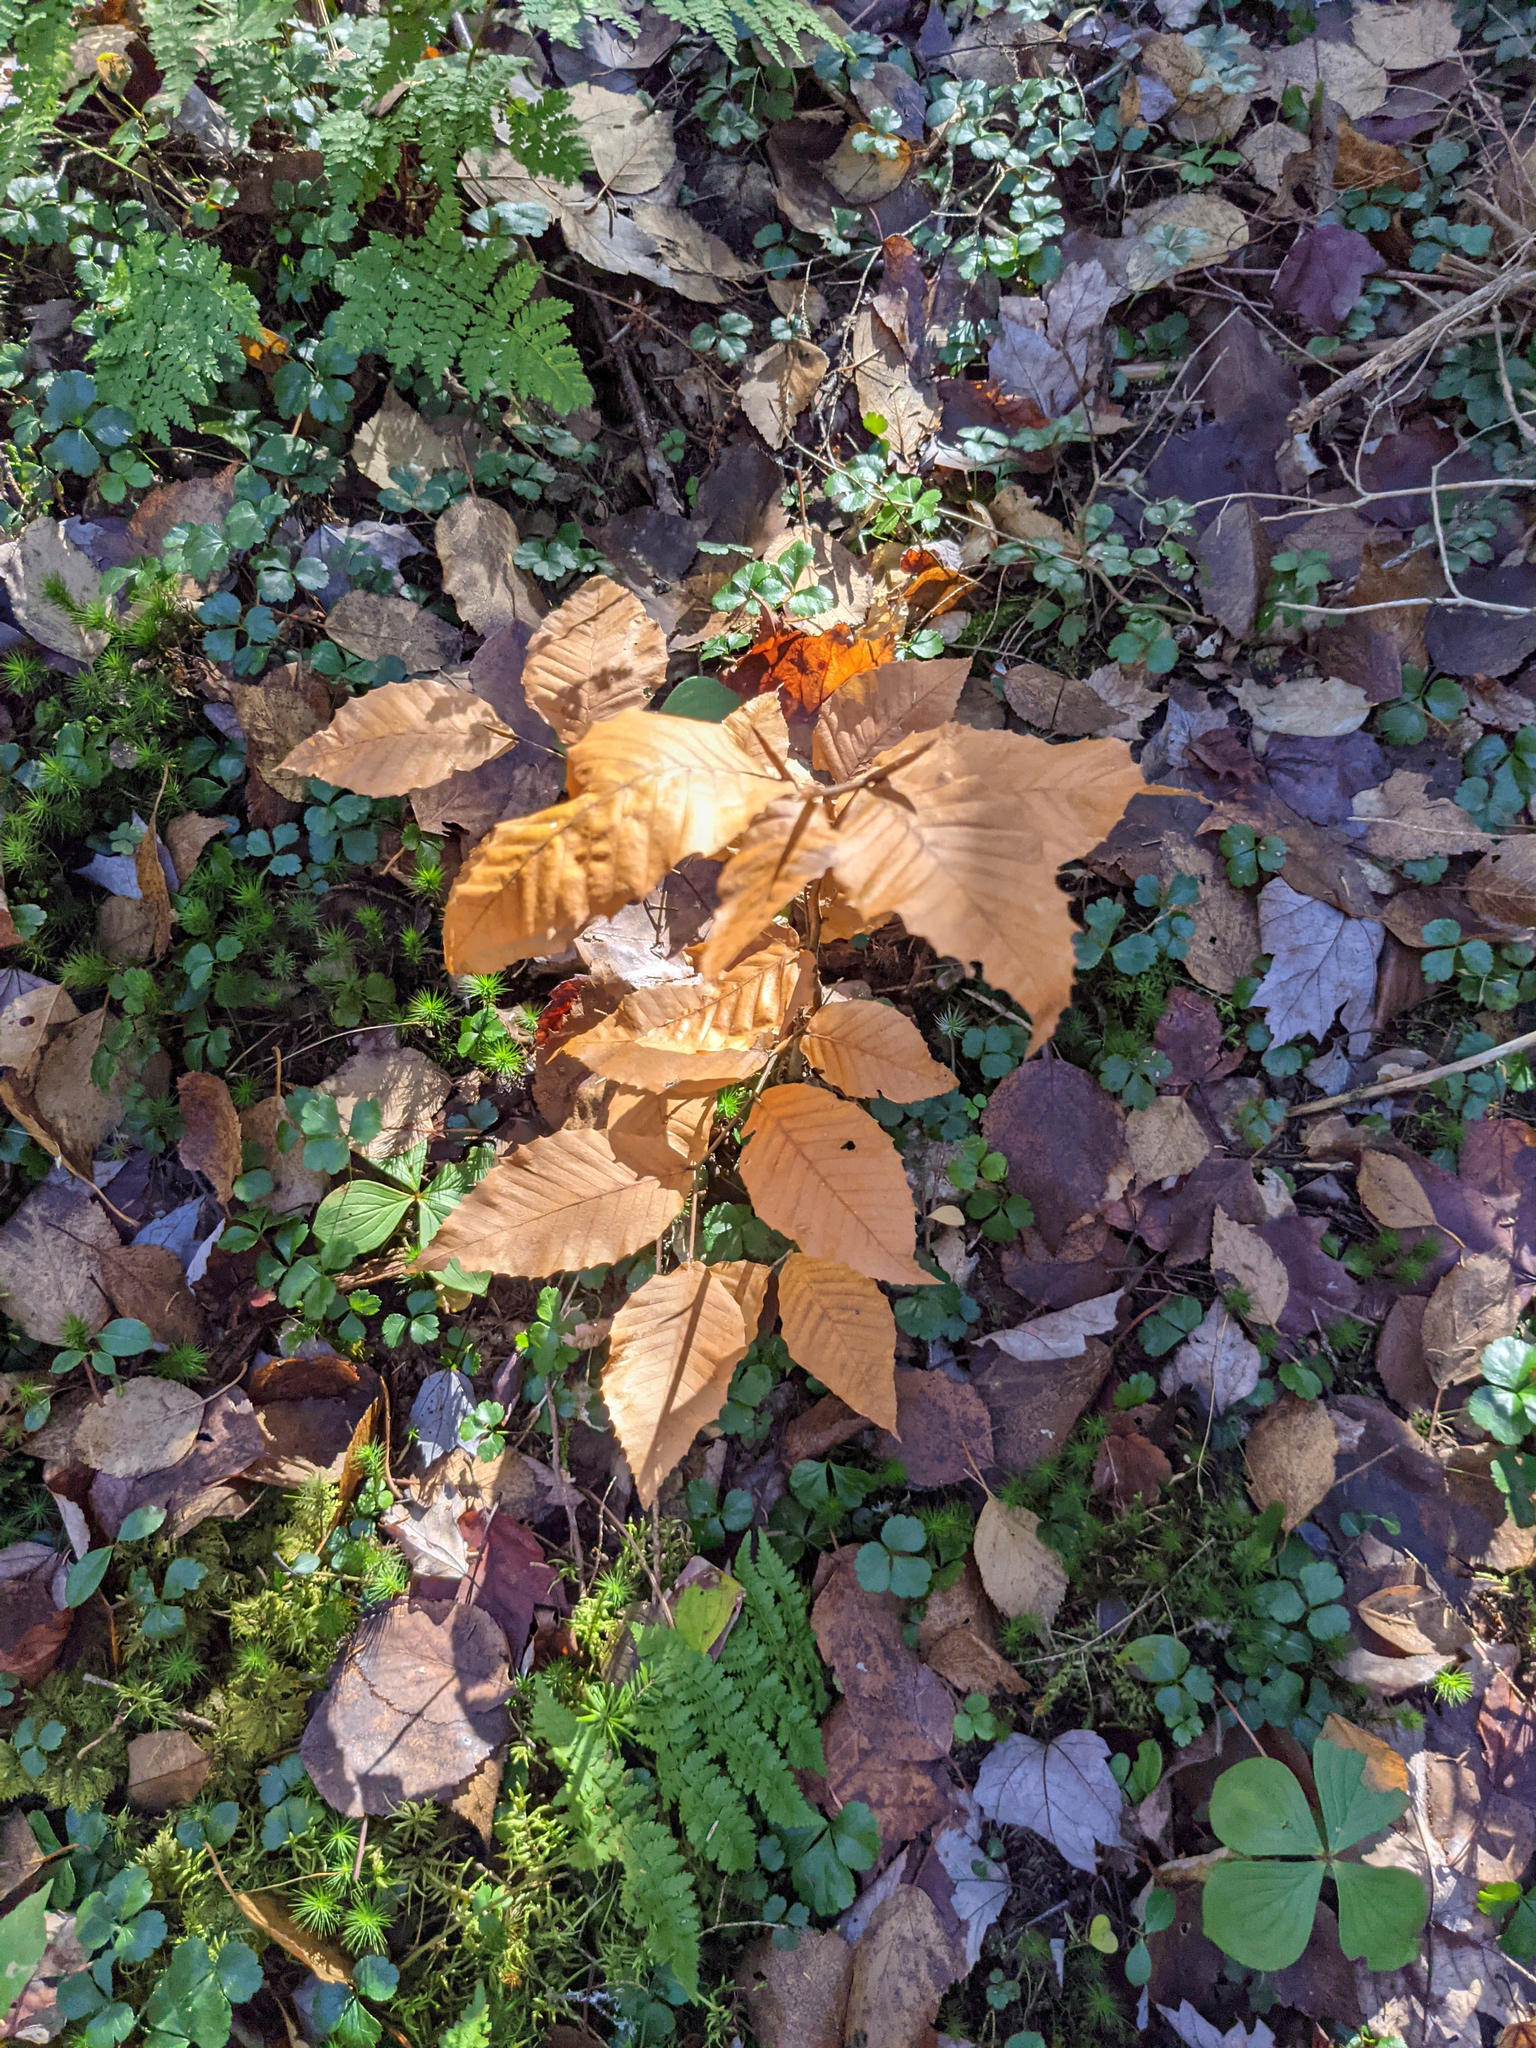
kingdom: Plantae
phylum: Tracheophyta
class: Magnoliopsida
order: Fagales
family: Fagaceae
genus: Fagus
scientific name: Fagus grandifolia
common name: American beech
